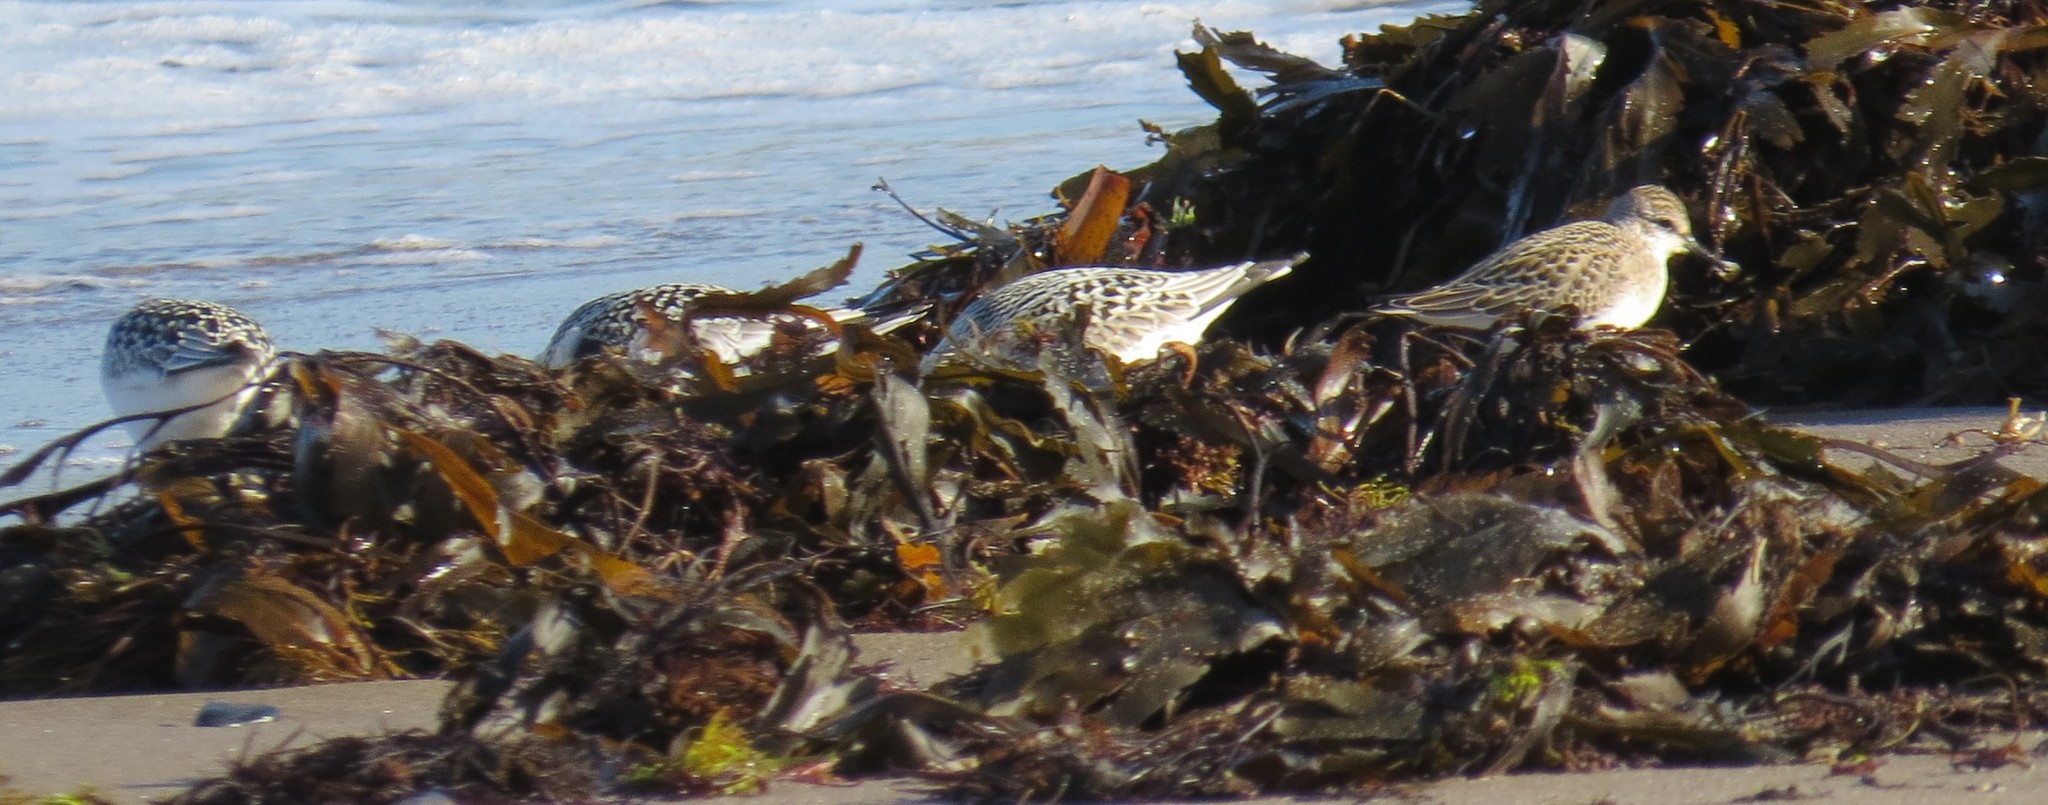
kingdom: Animalia
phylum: Chordata
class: Aves
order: Charadriiformes
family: Scolopacidae
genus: Calidris
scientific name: Calidris alba
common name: Sanderling
